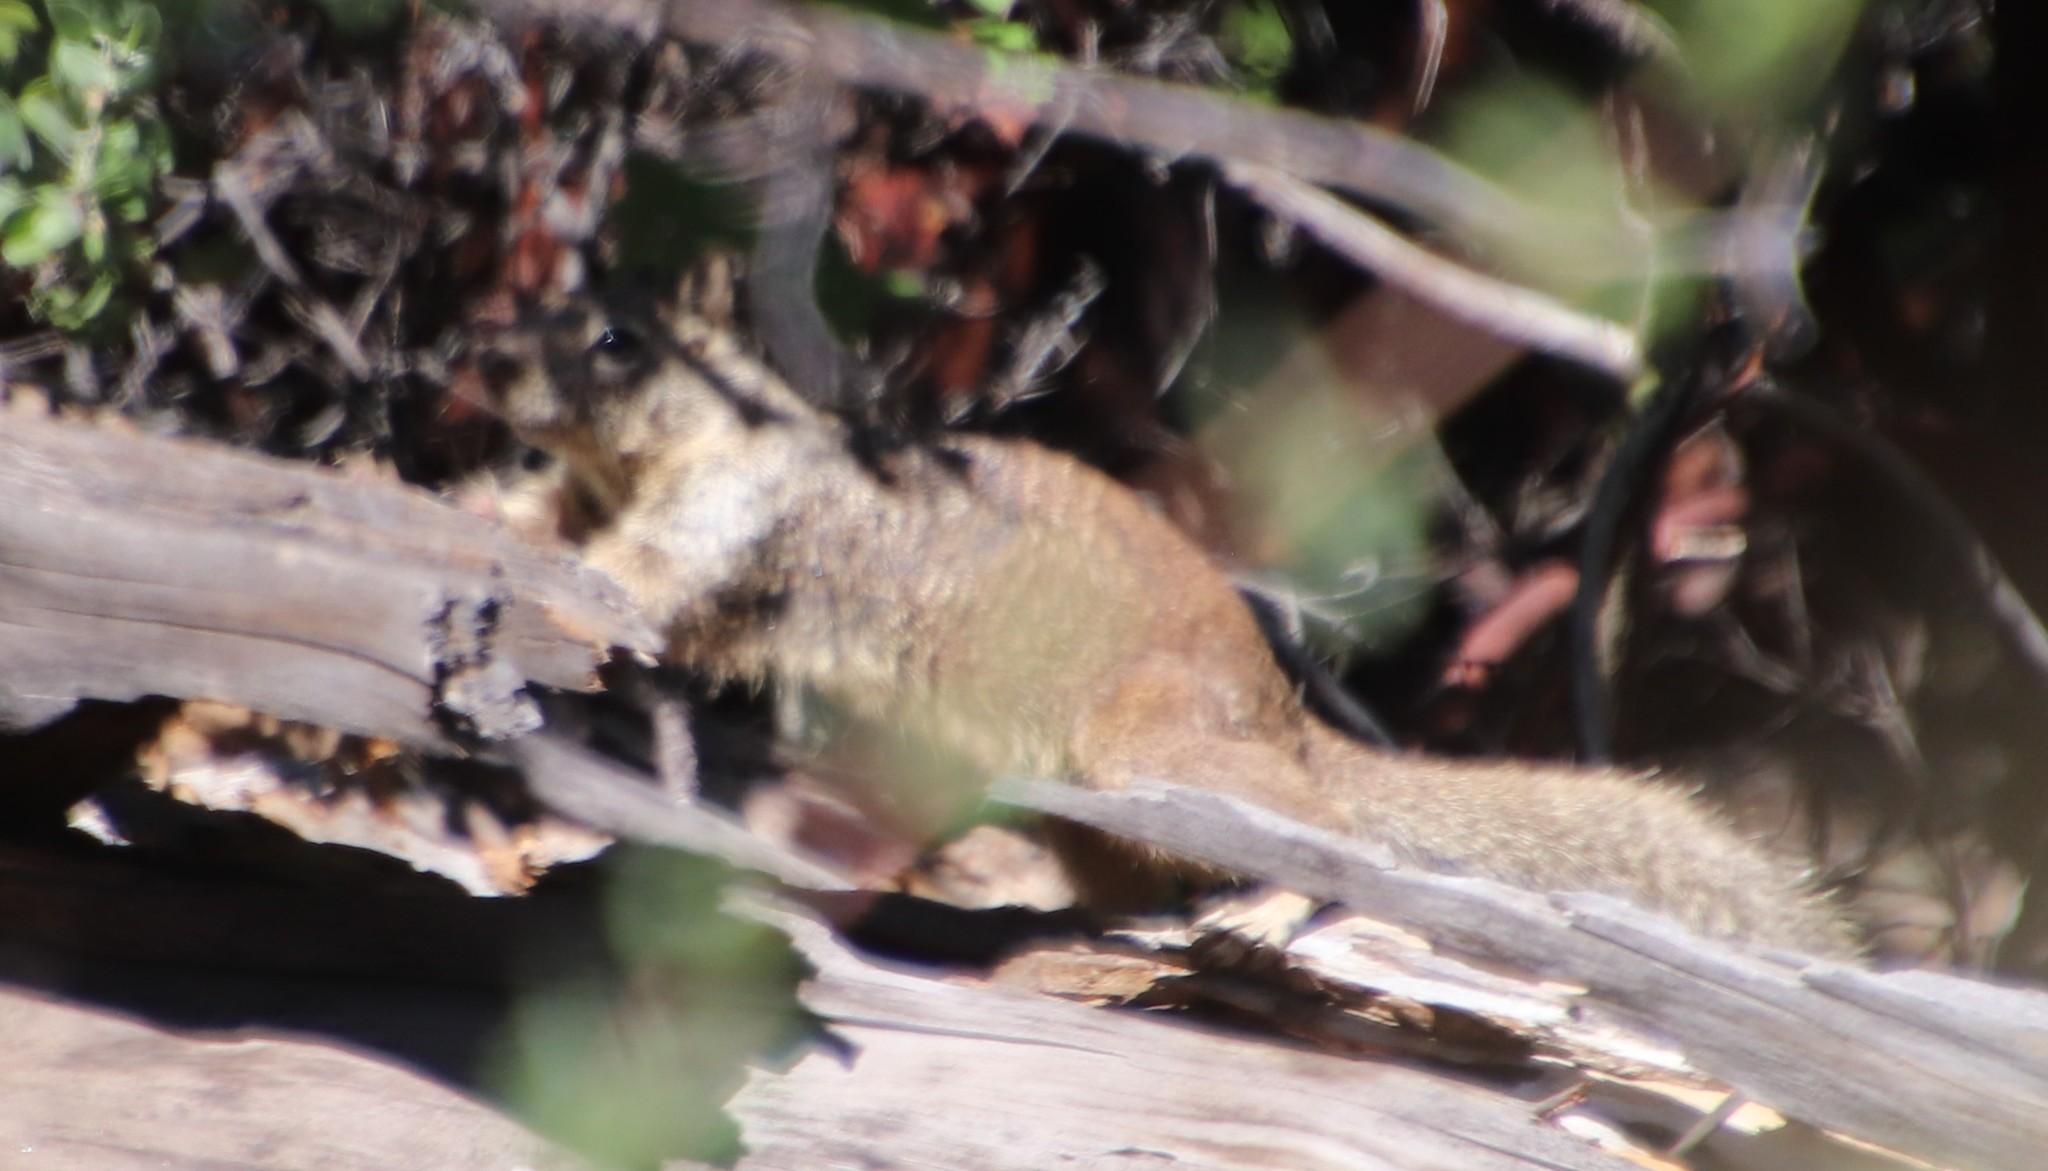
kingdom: Animalia
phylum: Chordata
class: Mammalia
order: Rodentia
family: Sciuridae
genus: Otospermophilus
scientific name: Otospermophilus beecheyi
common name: California ground squirrel
